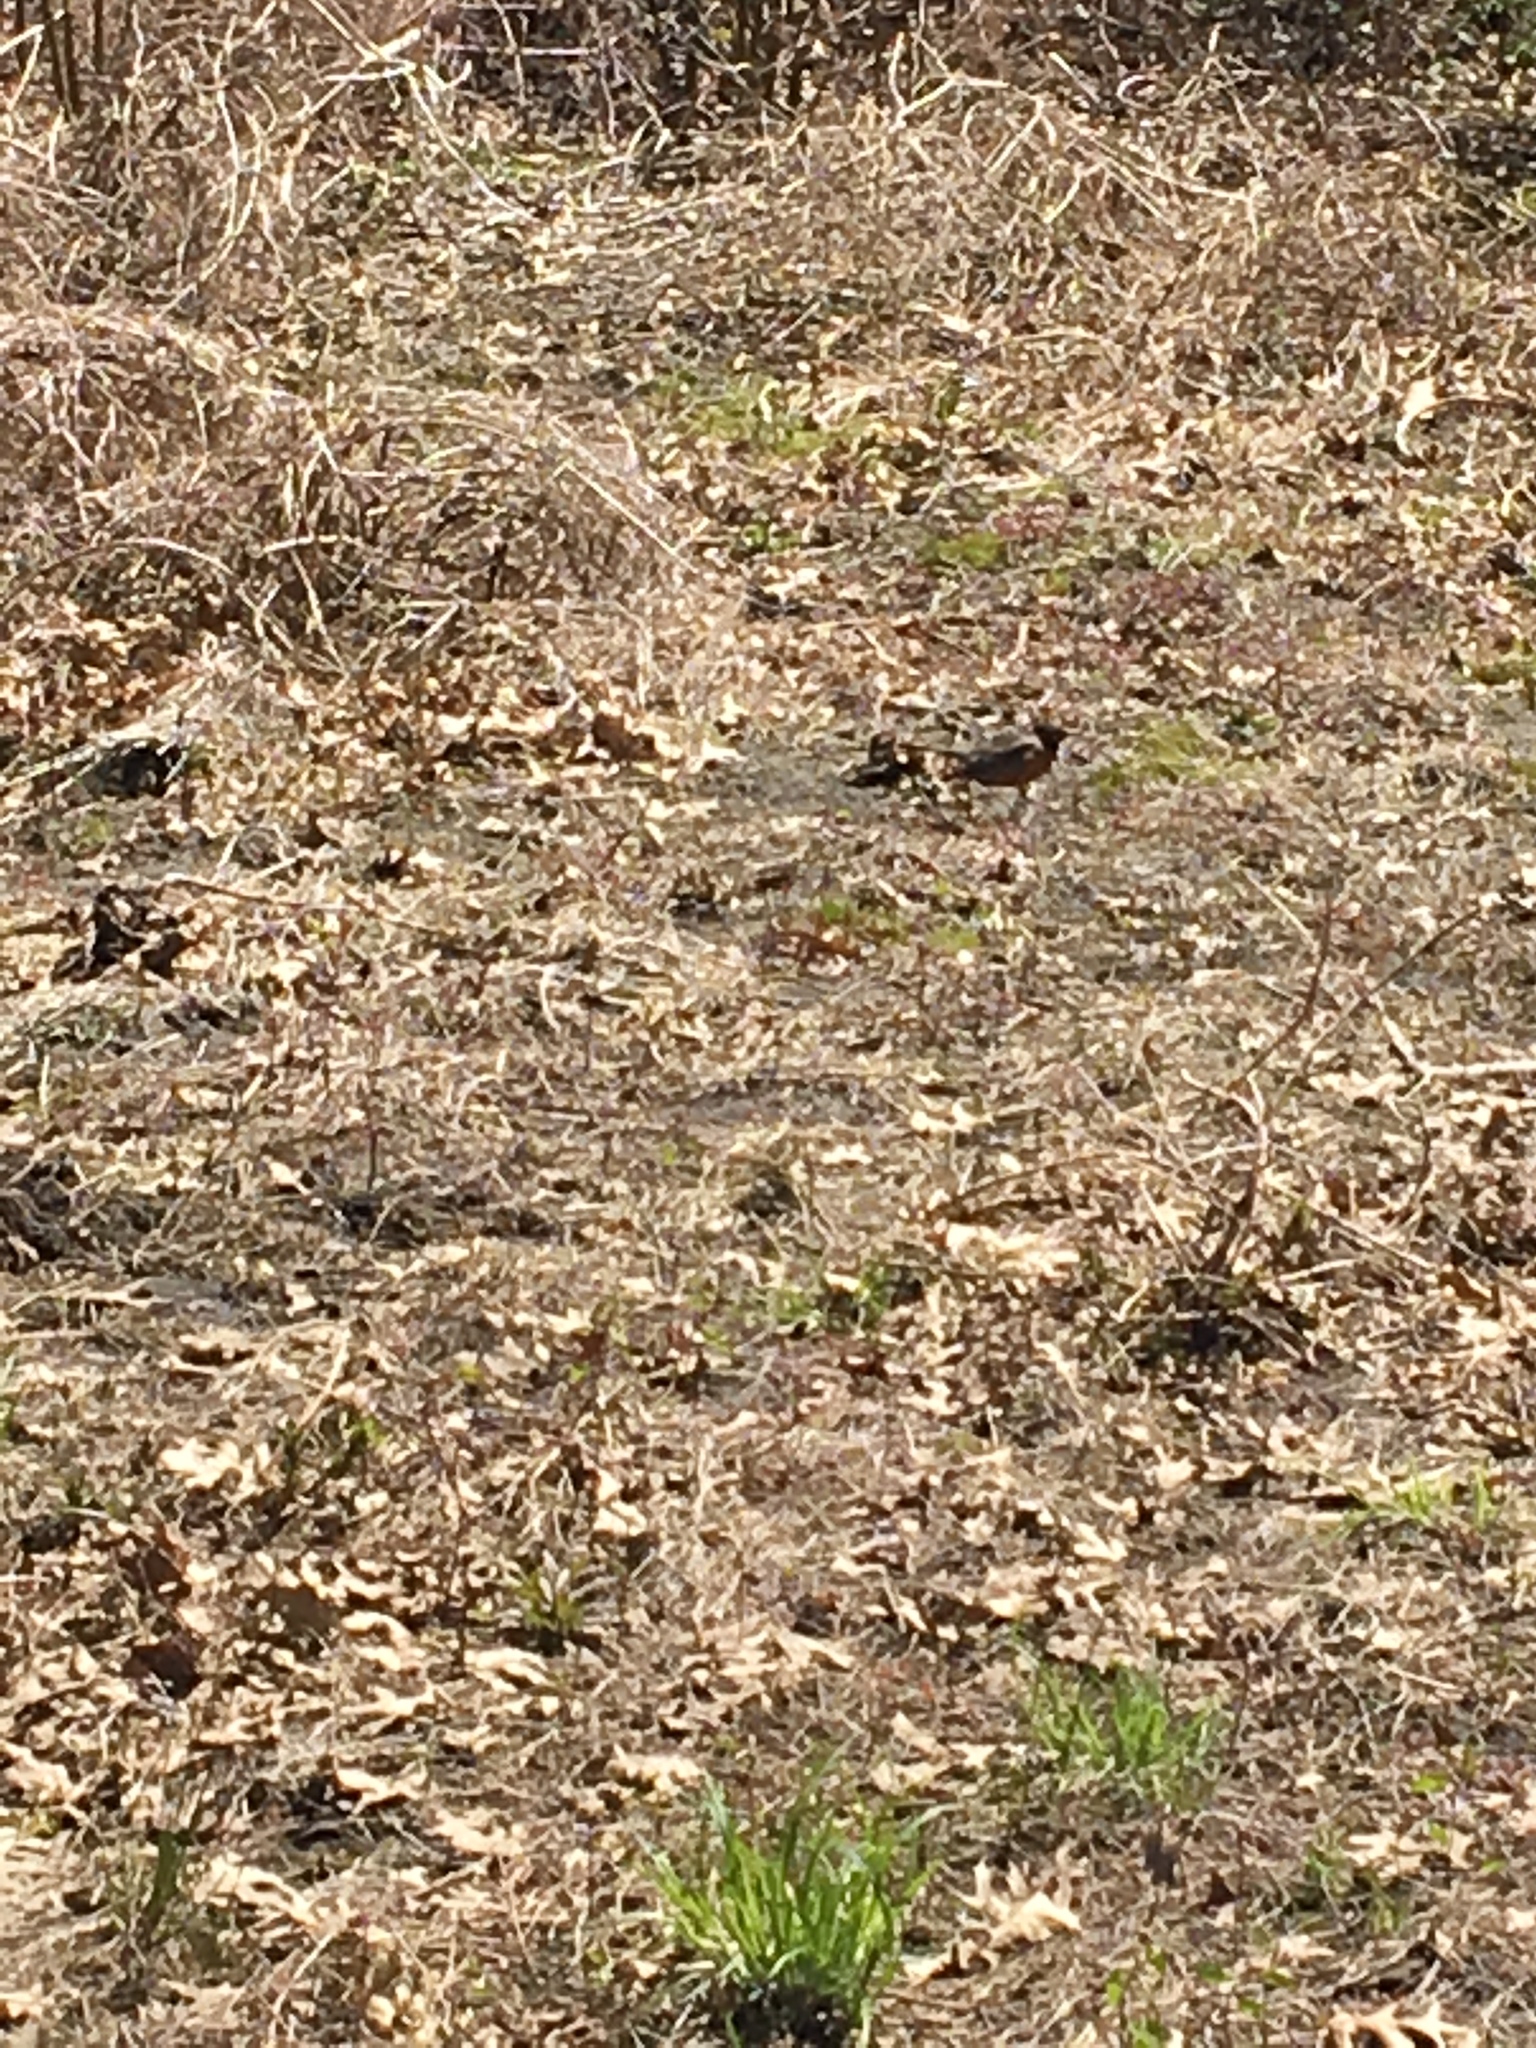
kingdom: Animalia
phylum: Chordata
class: Aves
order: Passeriformes
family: Turdidae
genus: Turdus
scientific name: Turdus migratorius
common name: American robin
